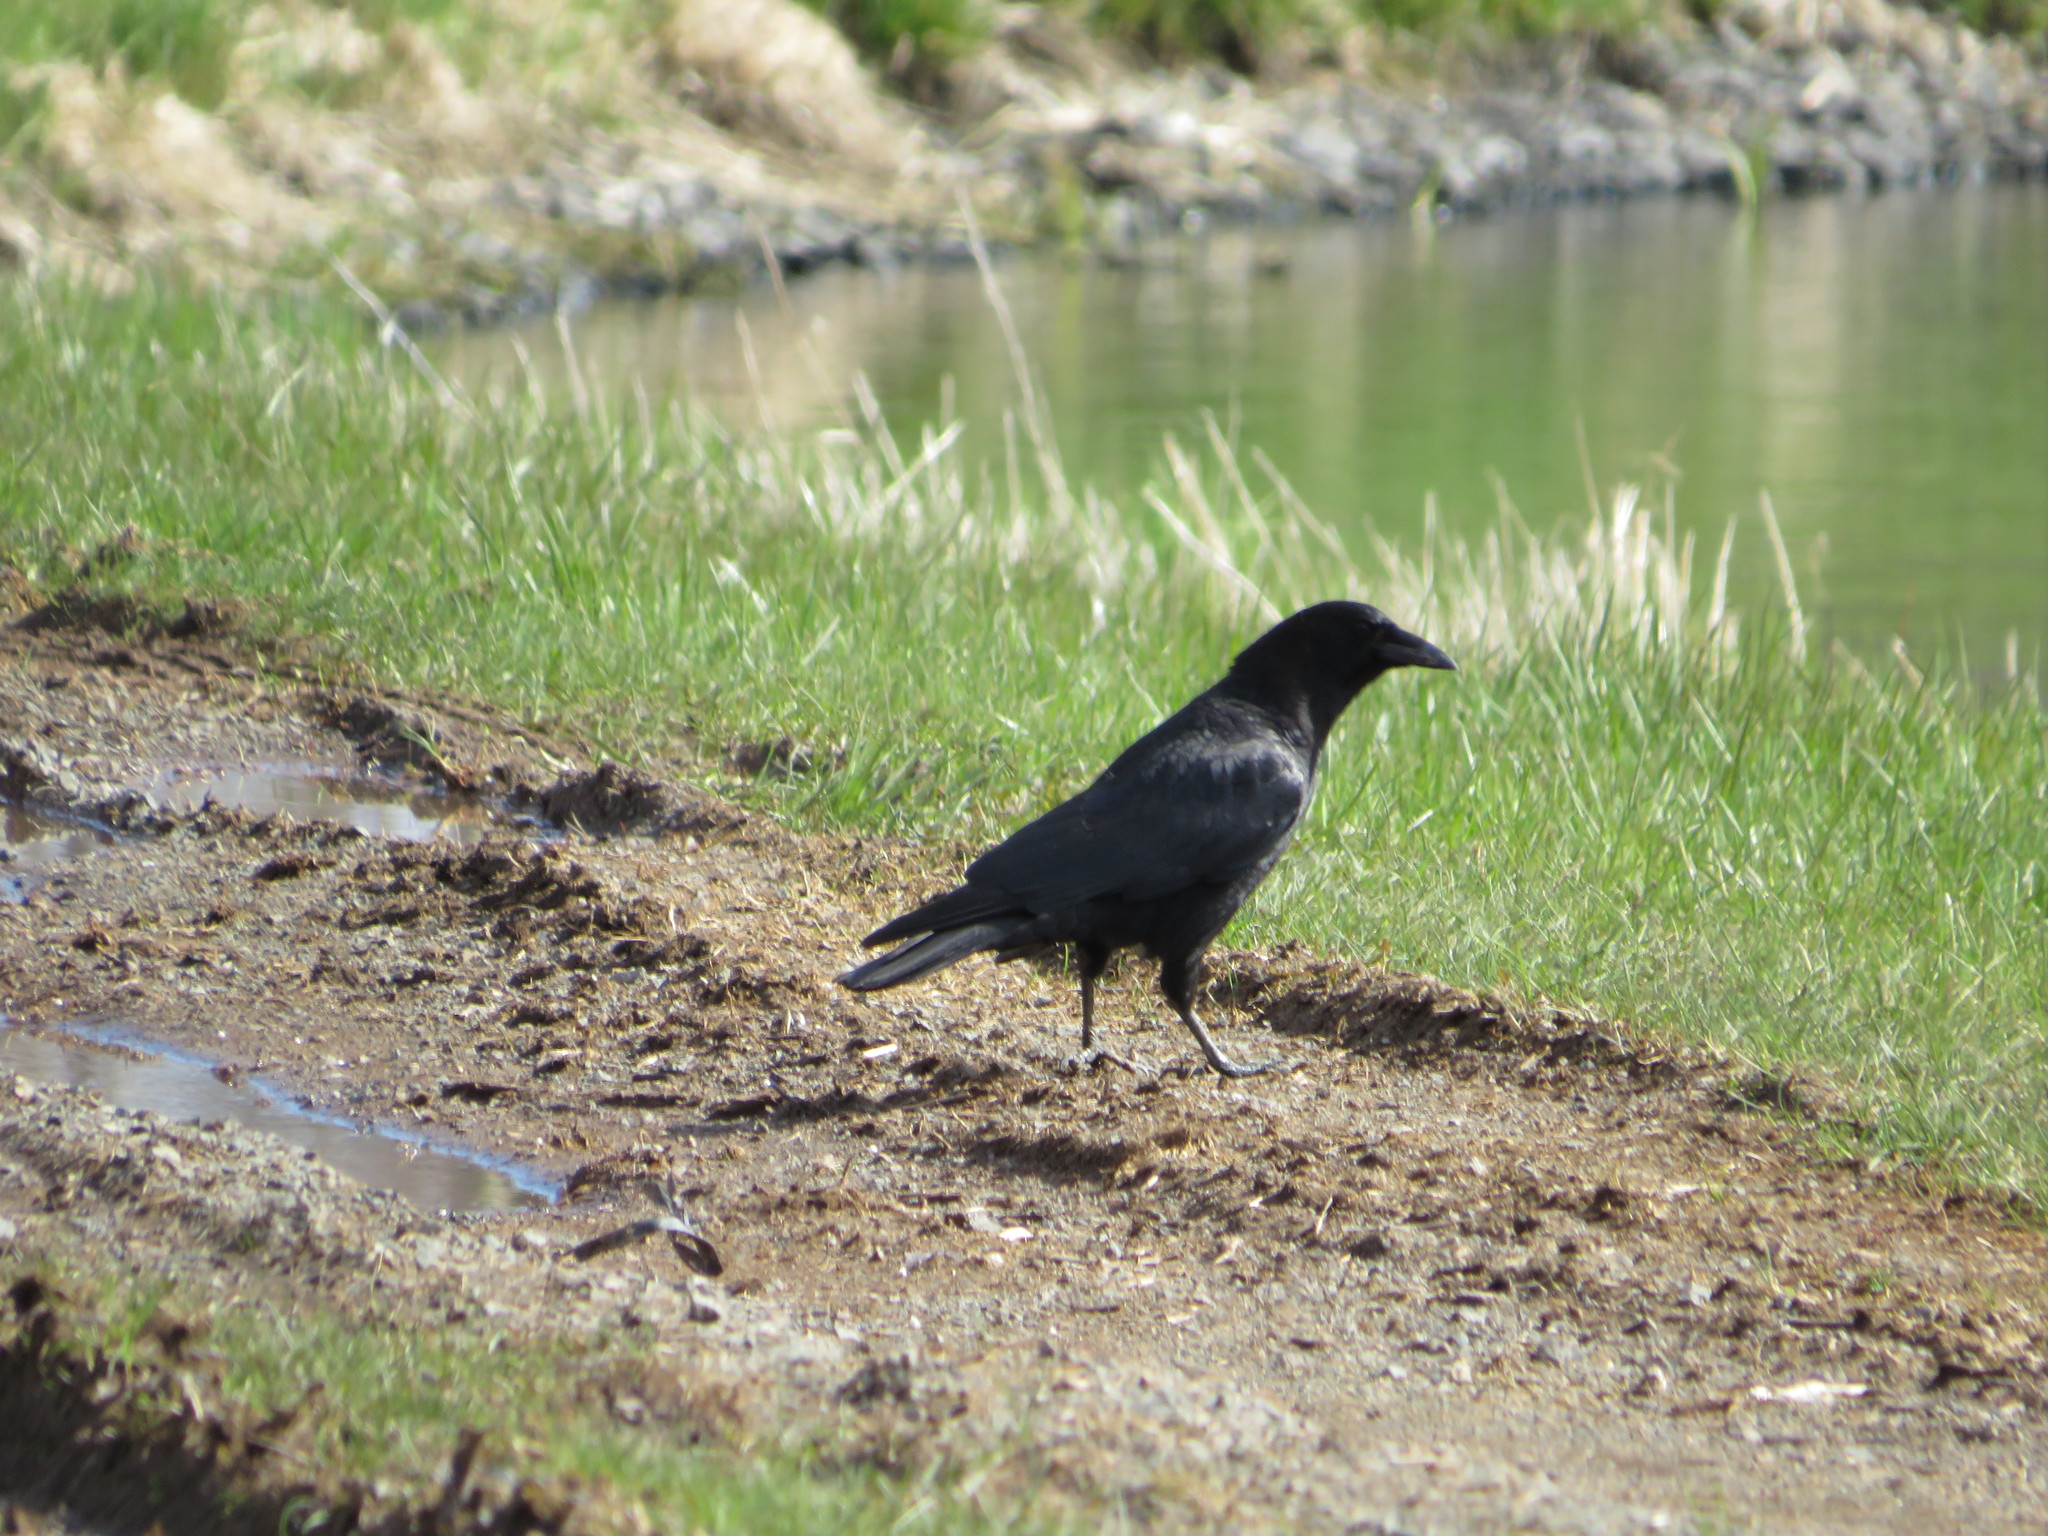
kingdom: Animalia
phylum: Chordata
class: Aves
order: Passeriformes
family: Corvidae
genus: Corvus
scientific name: Corvus brachyrhynchos
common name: American crow
